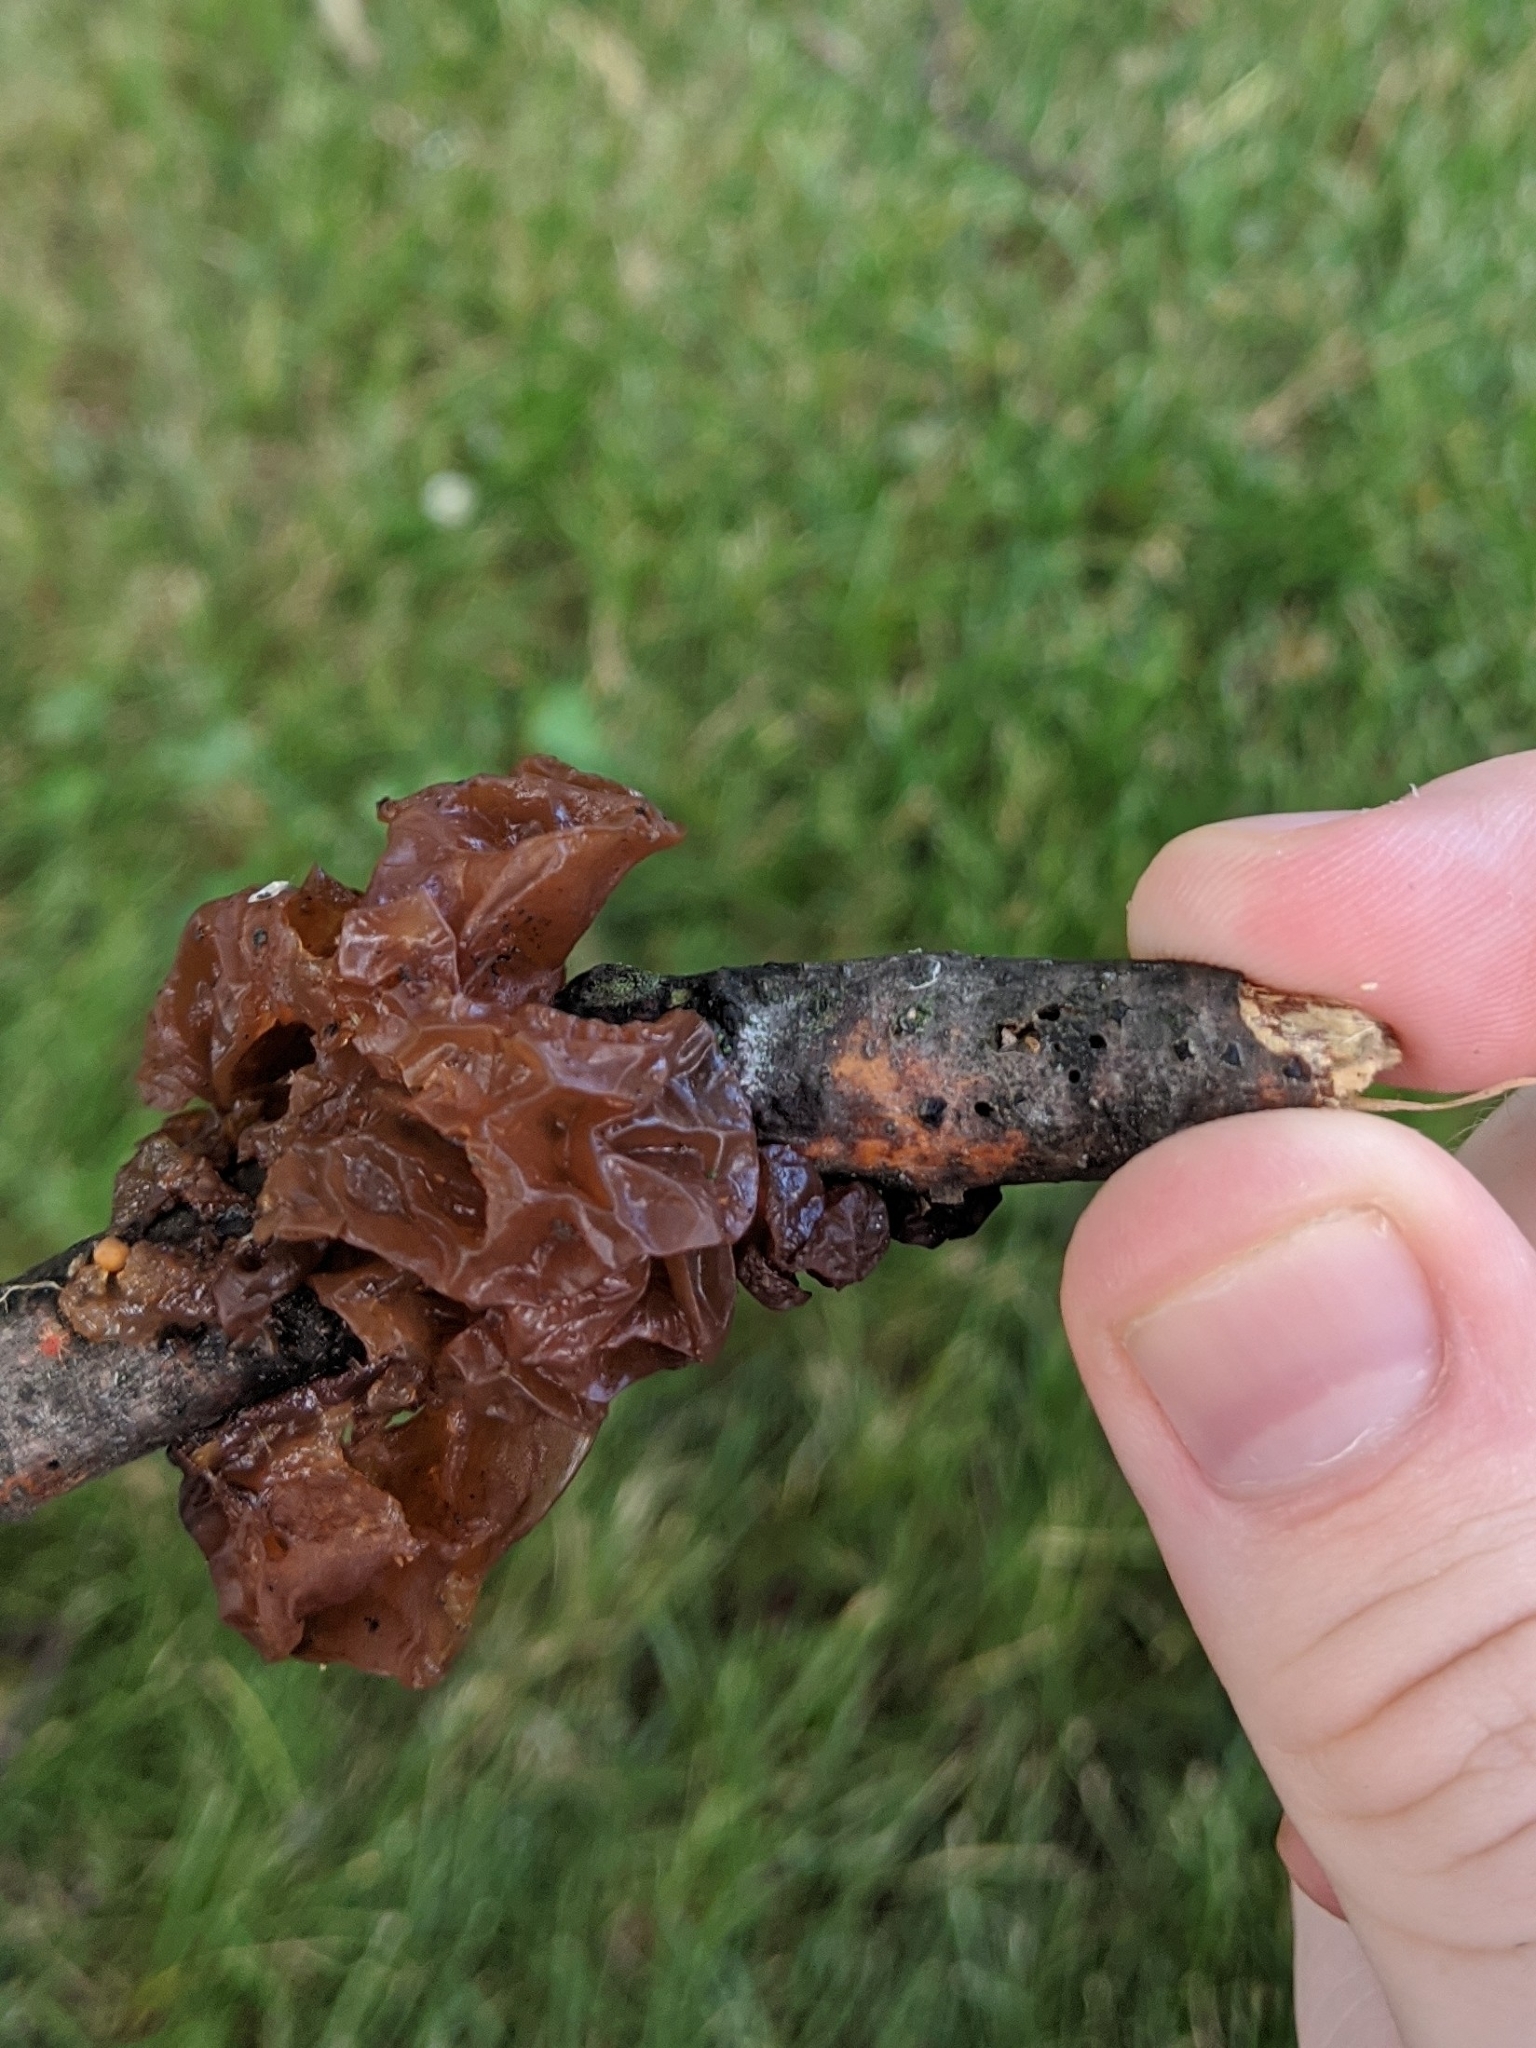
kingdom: Fungi
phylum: Basidiomycota
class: Agaricomycetes
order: Auriculariales
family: Auriculariaceae
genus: Exidia
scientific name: Exidia
